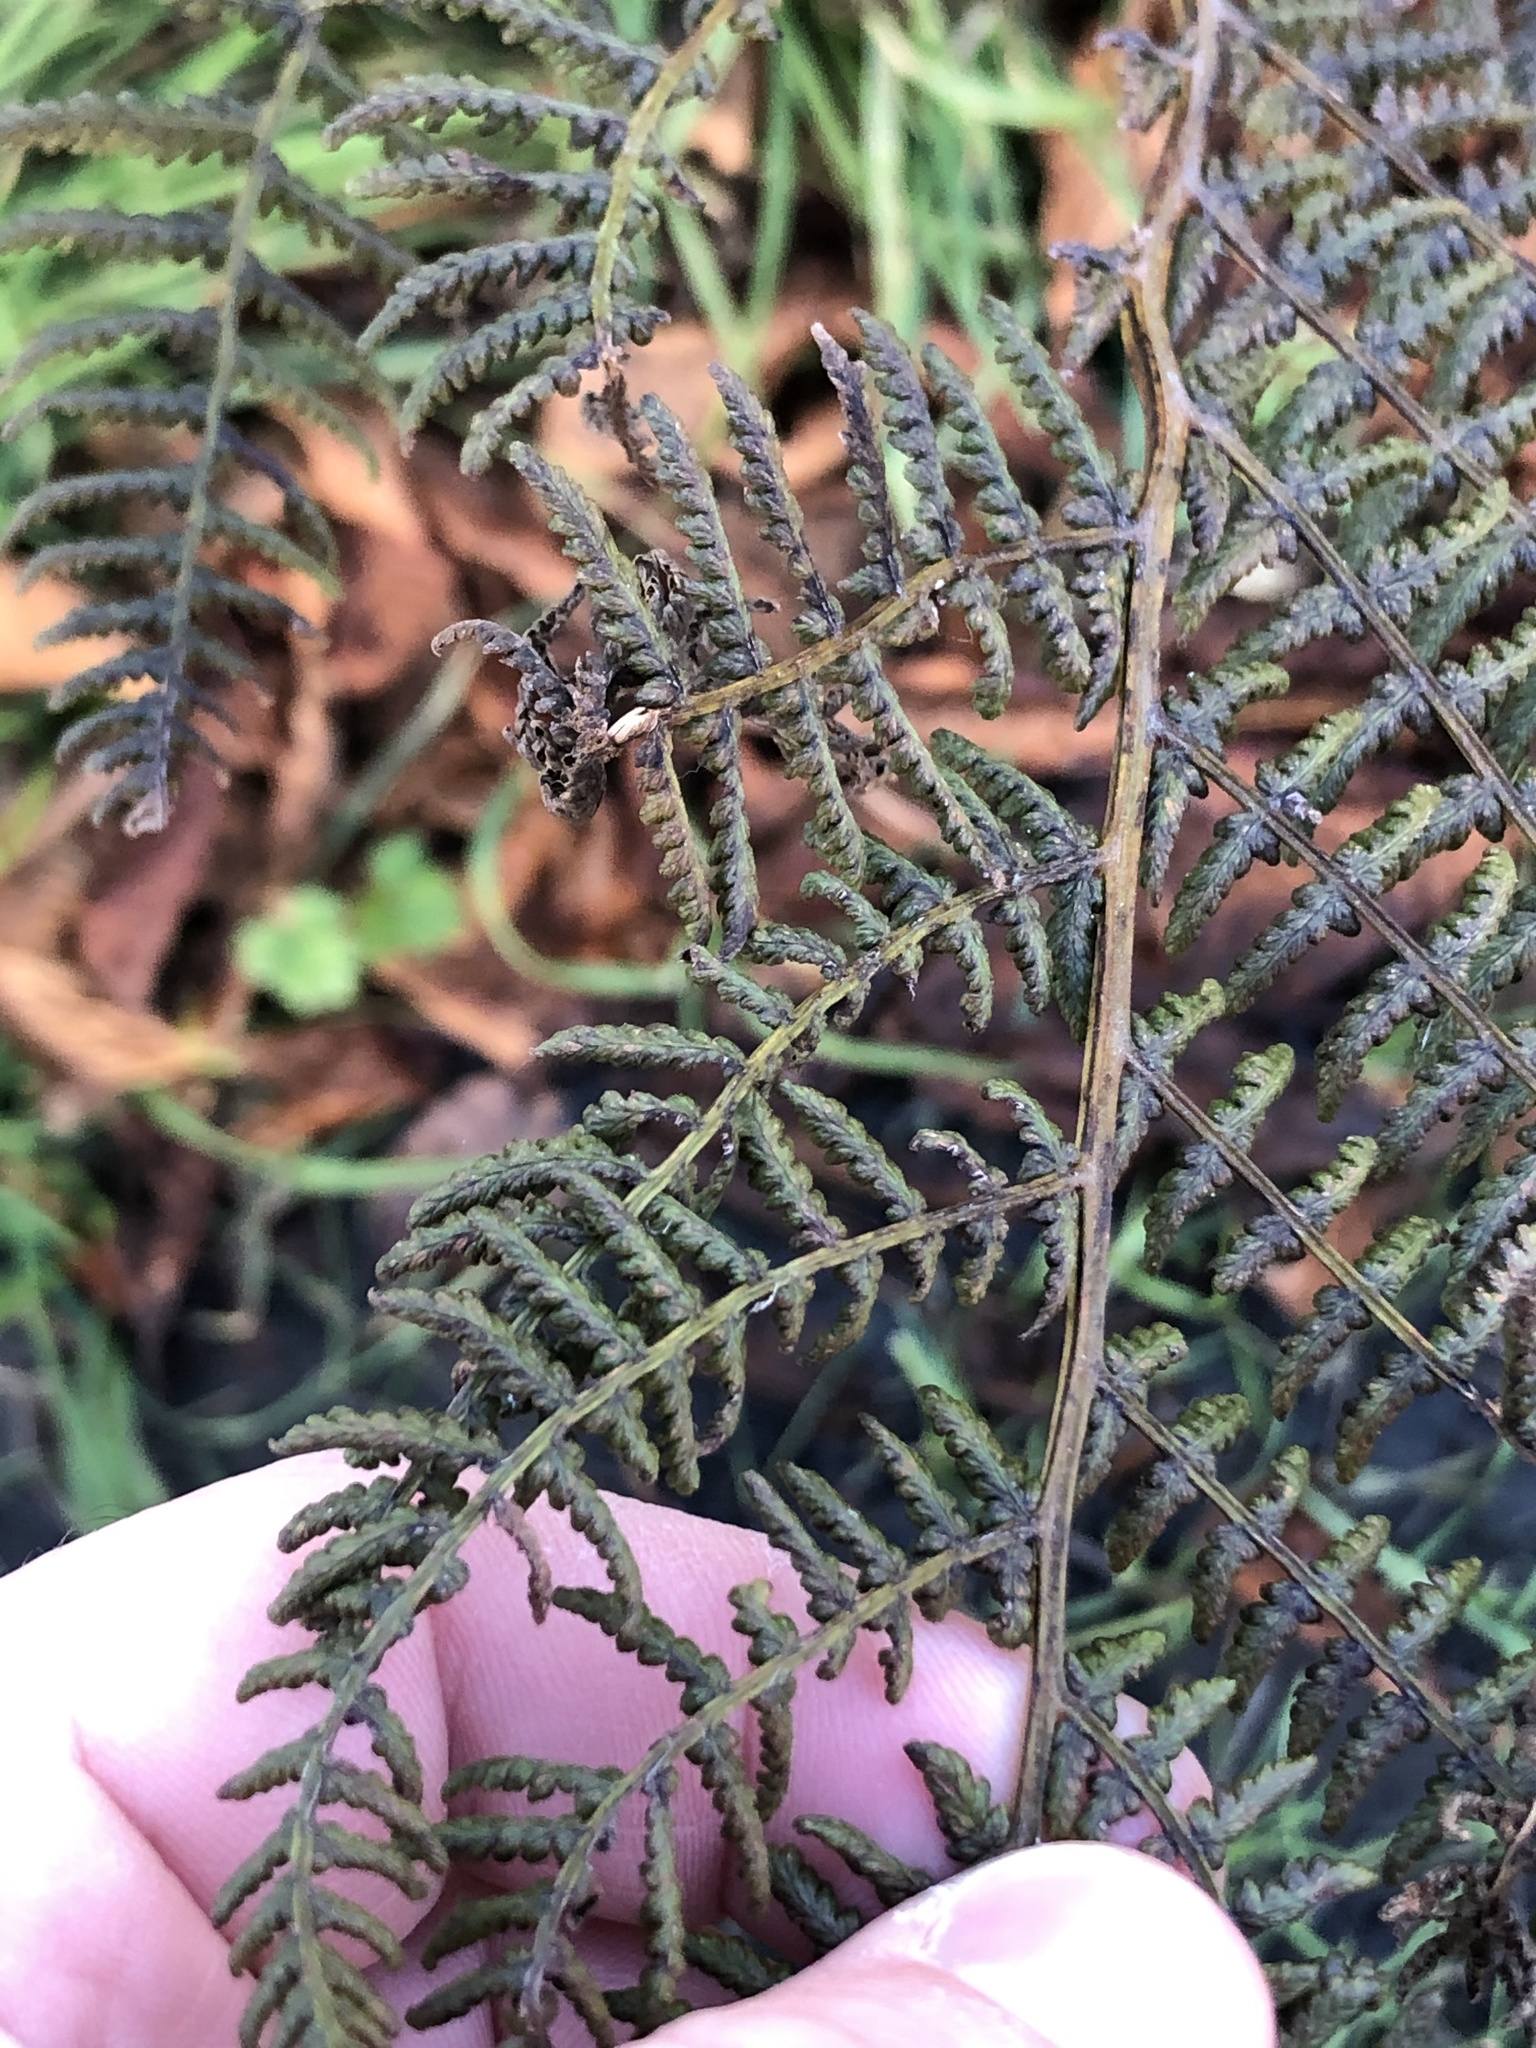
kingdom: Plantae
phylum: Tracheophyta
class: Polypodiopsida
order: Polypodiales
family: Athyriaceae
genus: Athyrium
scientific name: Athyrium filix-femina
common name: Lady fern
